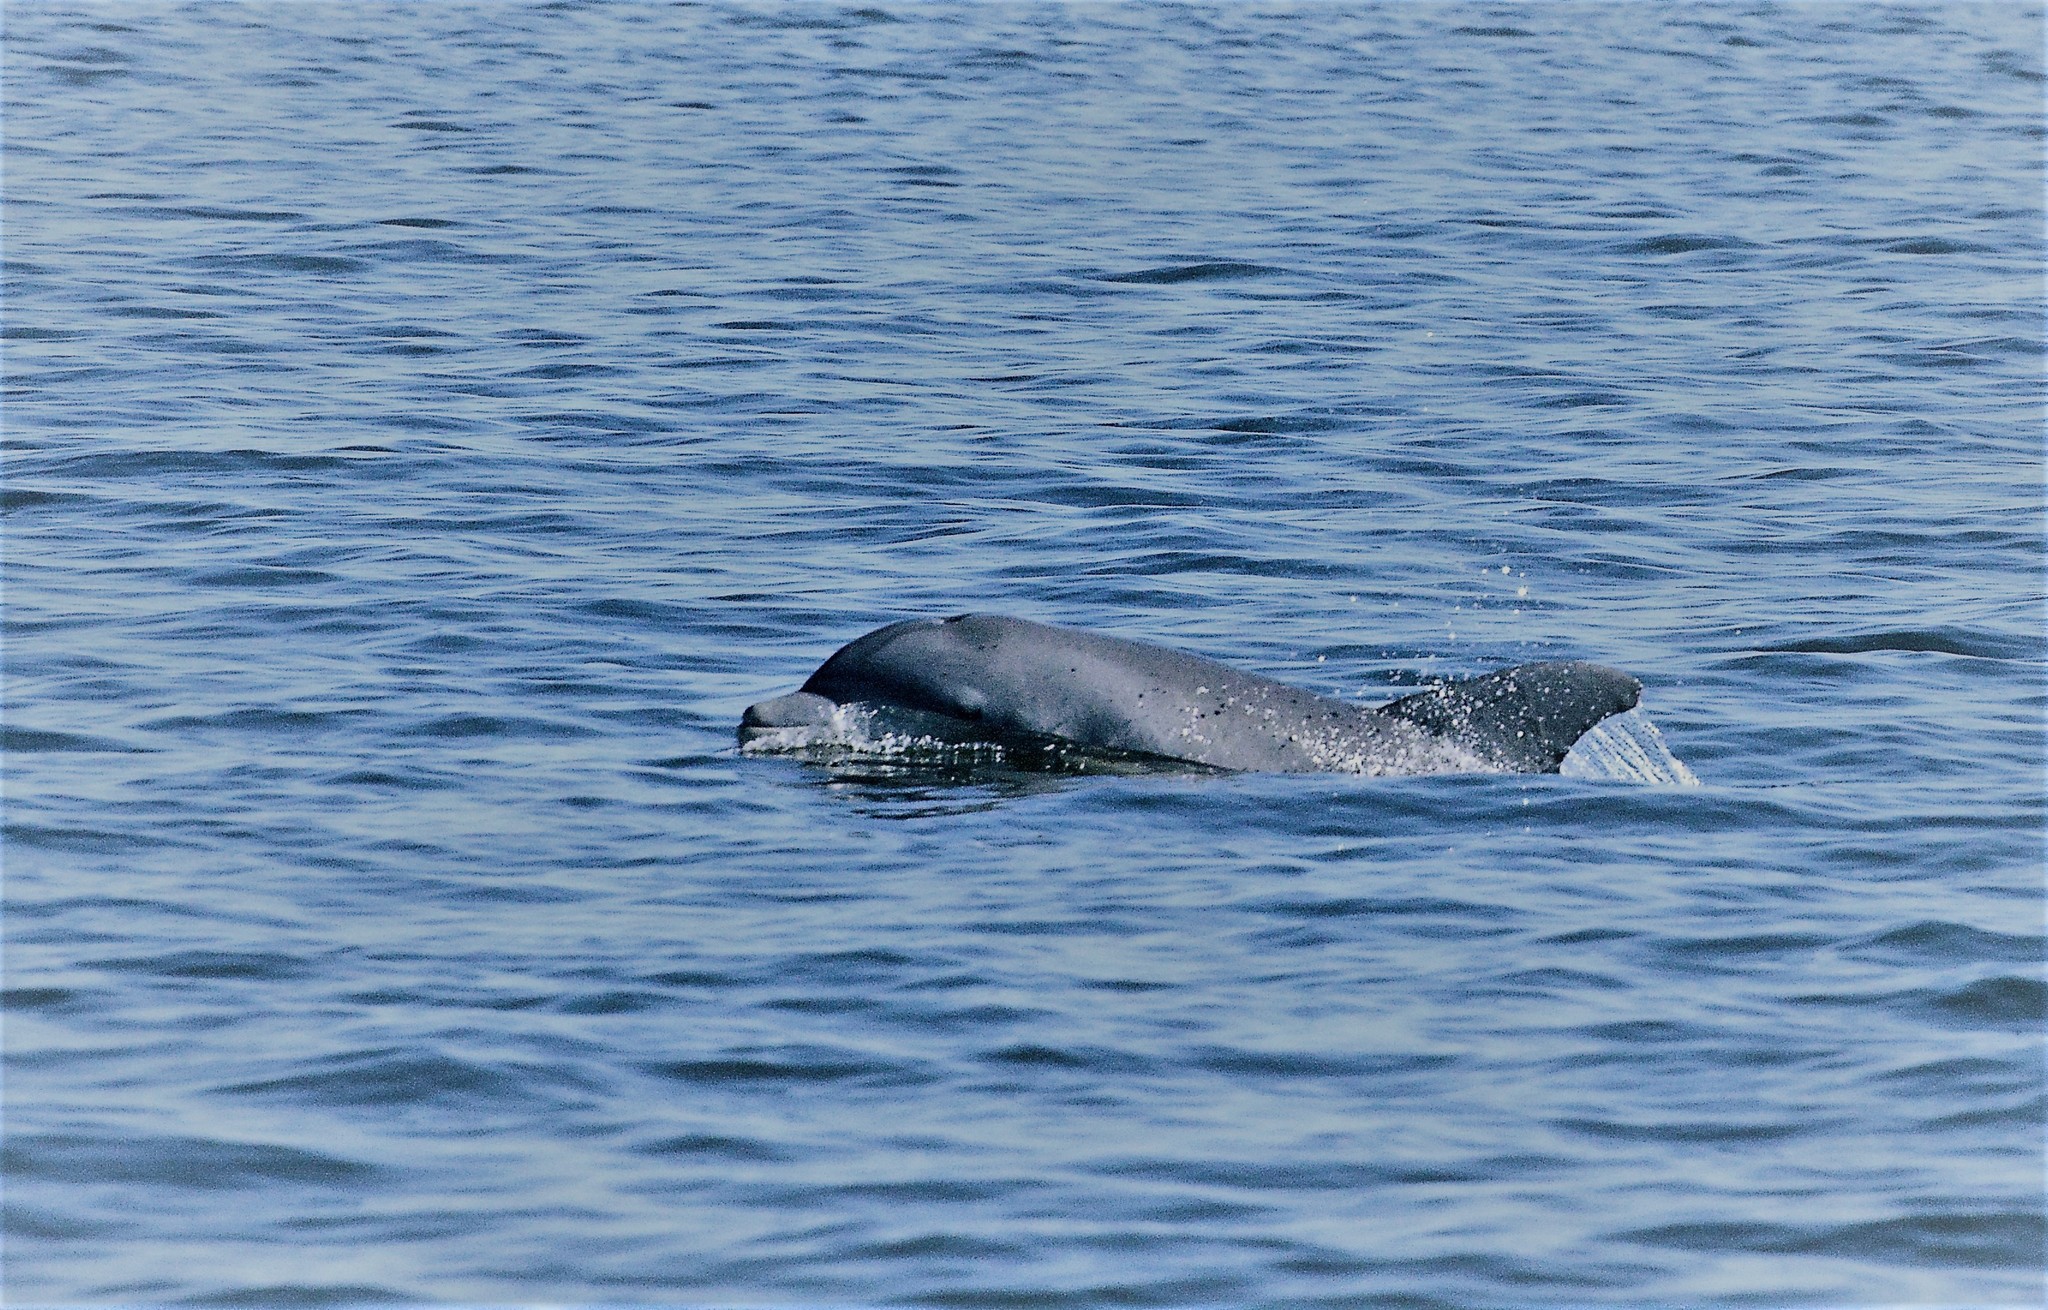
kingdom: Animalia
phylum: Chordata
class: Mammalia
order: Cetacea
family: Delphinidae
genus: Tursiops
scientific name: Tursiops truncatus
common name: Bottlenose dolphin
